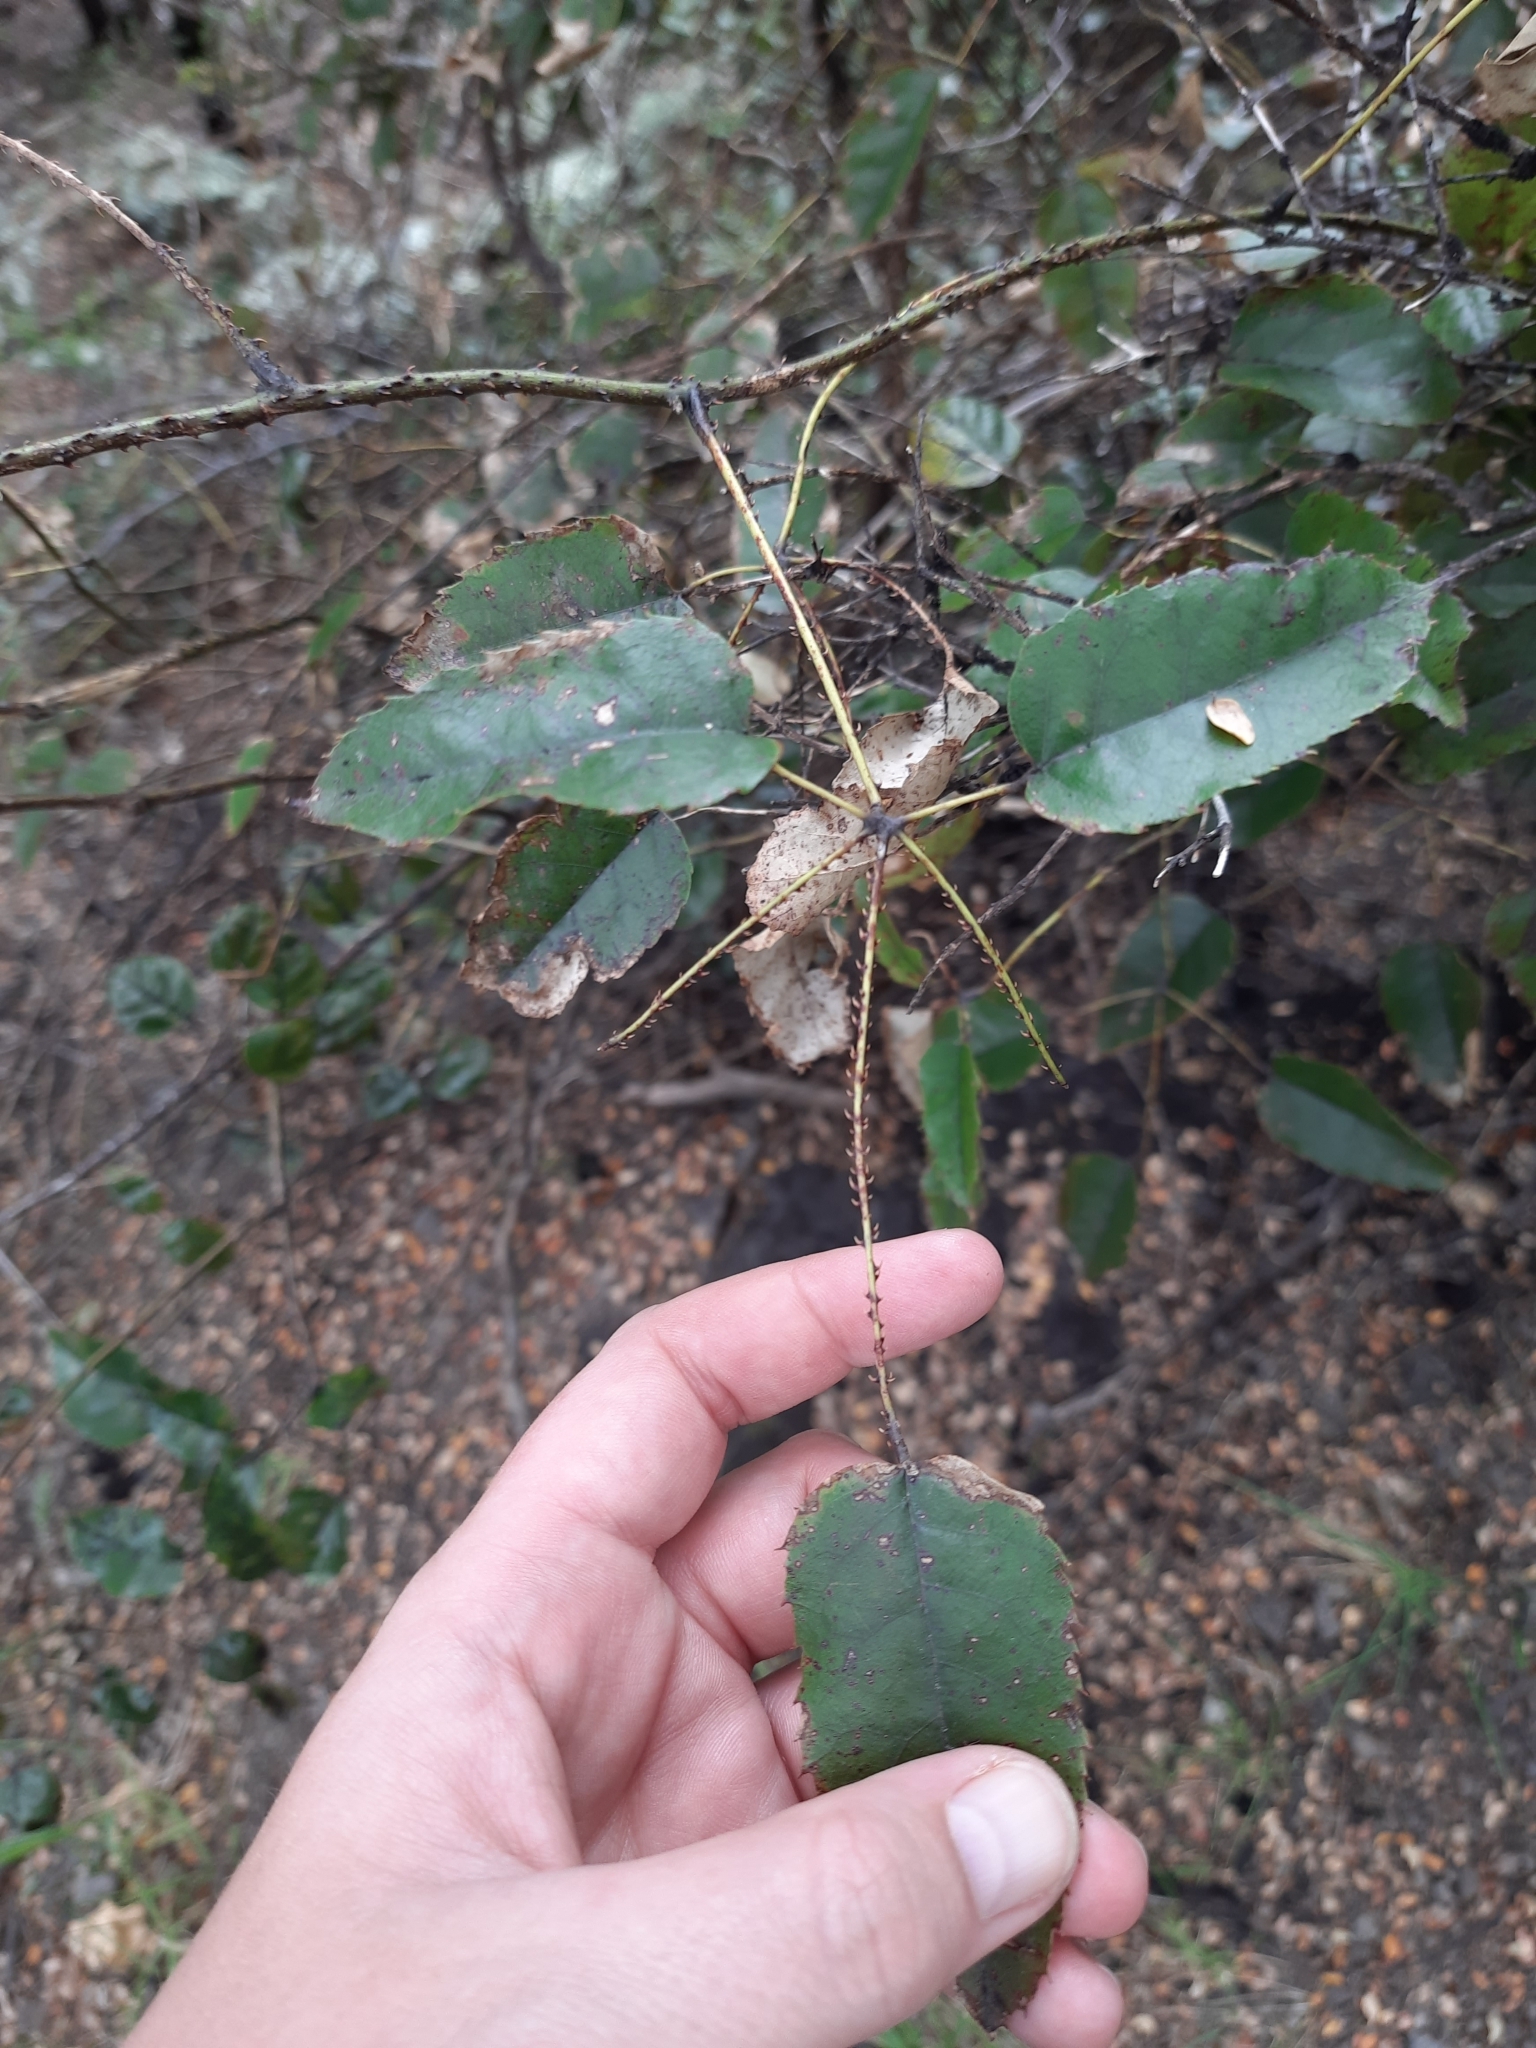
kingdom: Plantae
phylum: Tracheophyta
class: Magnoliopsida
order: Rosales
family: Rosaceae
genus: Rubus
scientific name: Rubus cissoides
